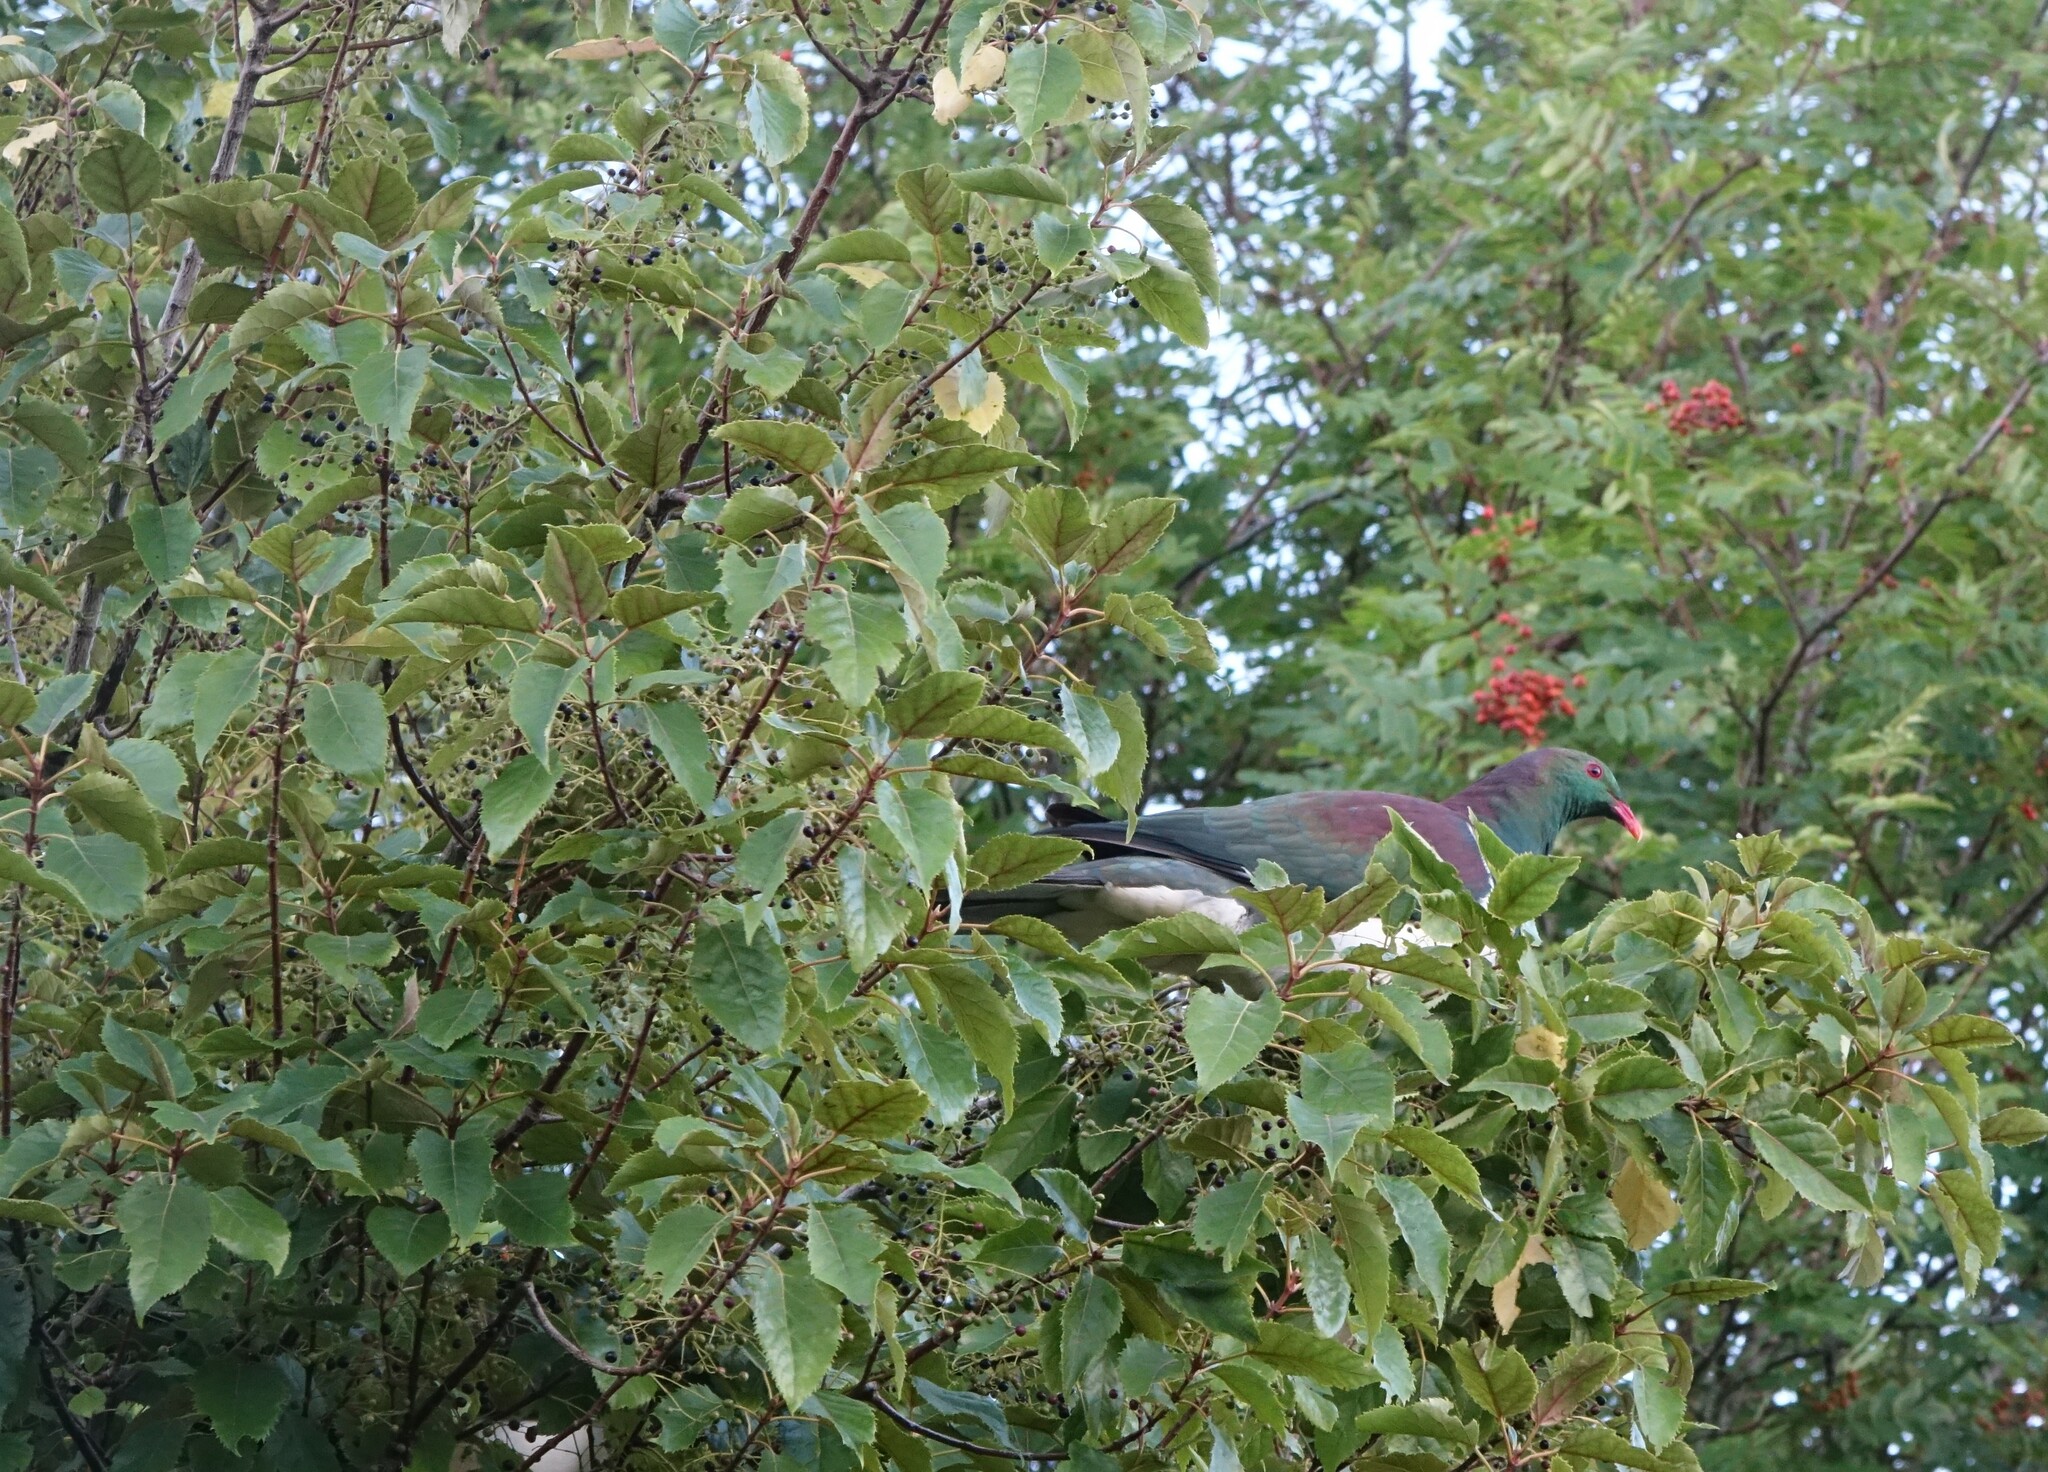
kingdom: Animalia
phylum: Chordata
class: Aves
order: Columbiformes
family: Columbidae
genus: Hemiphaga
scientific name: Hemiphaga novaeseelandiae
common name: New zealand pigeon
